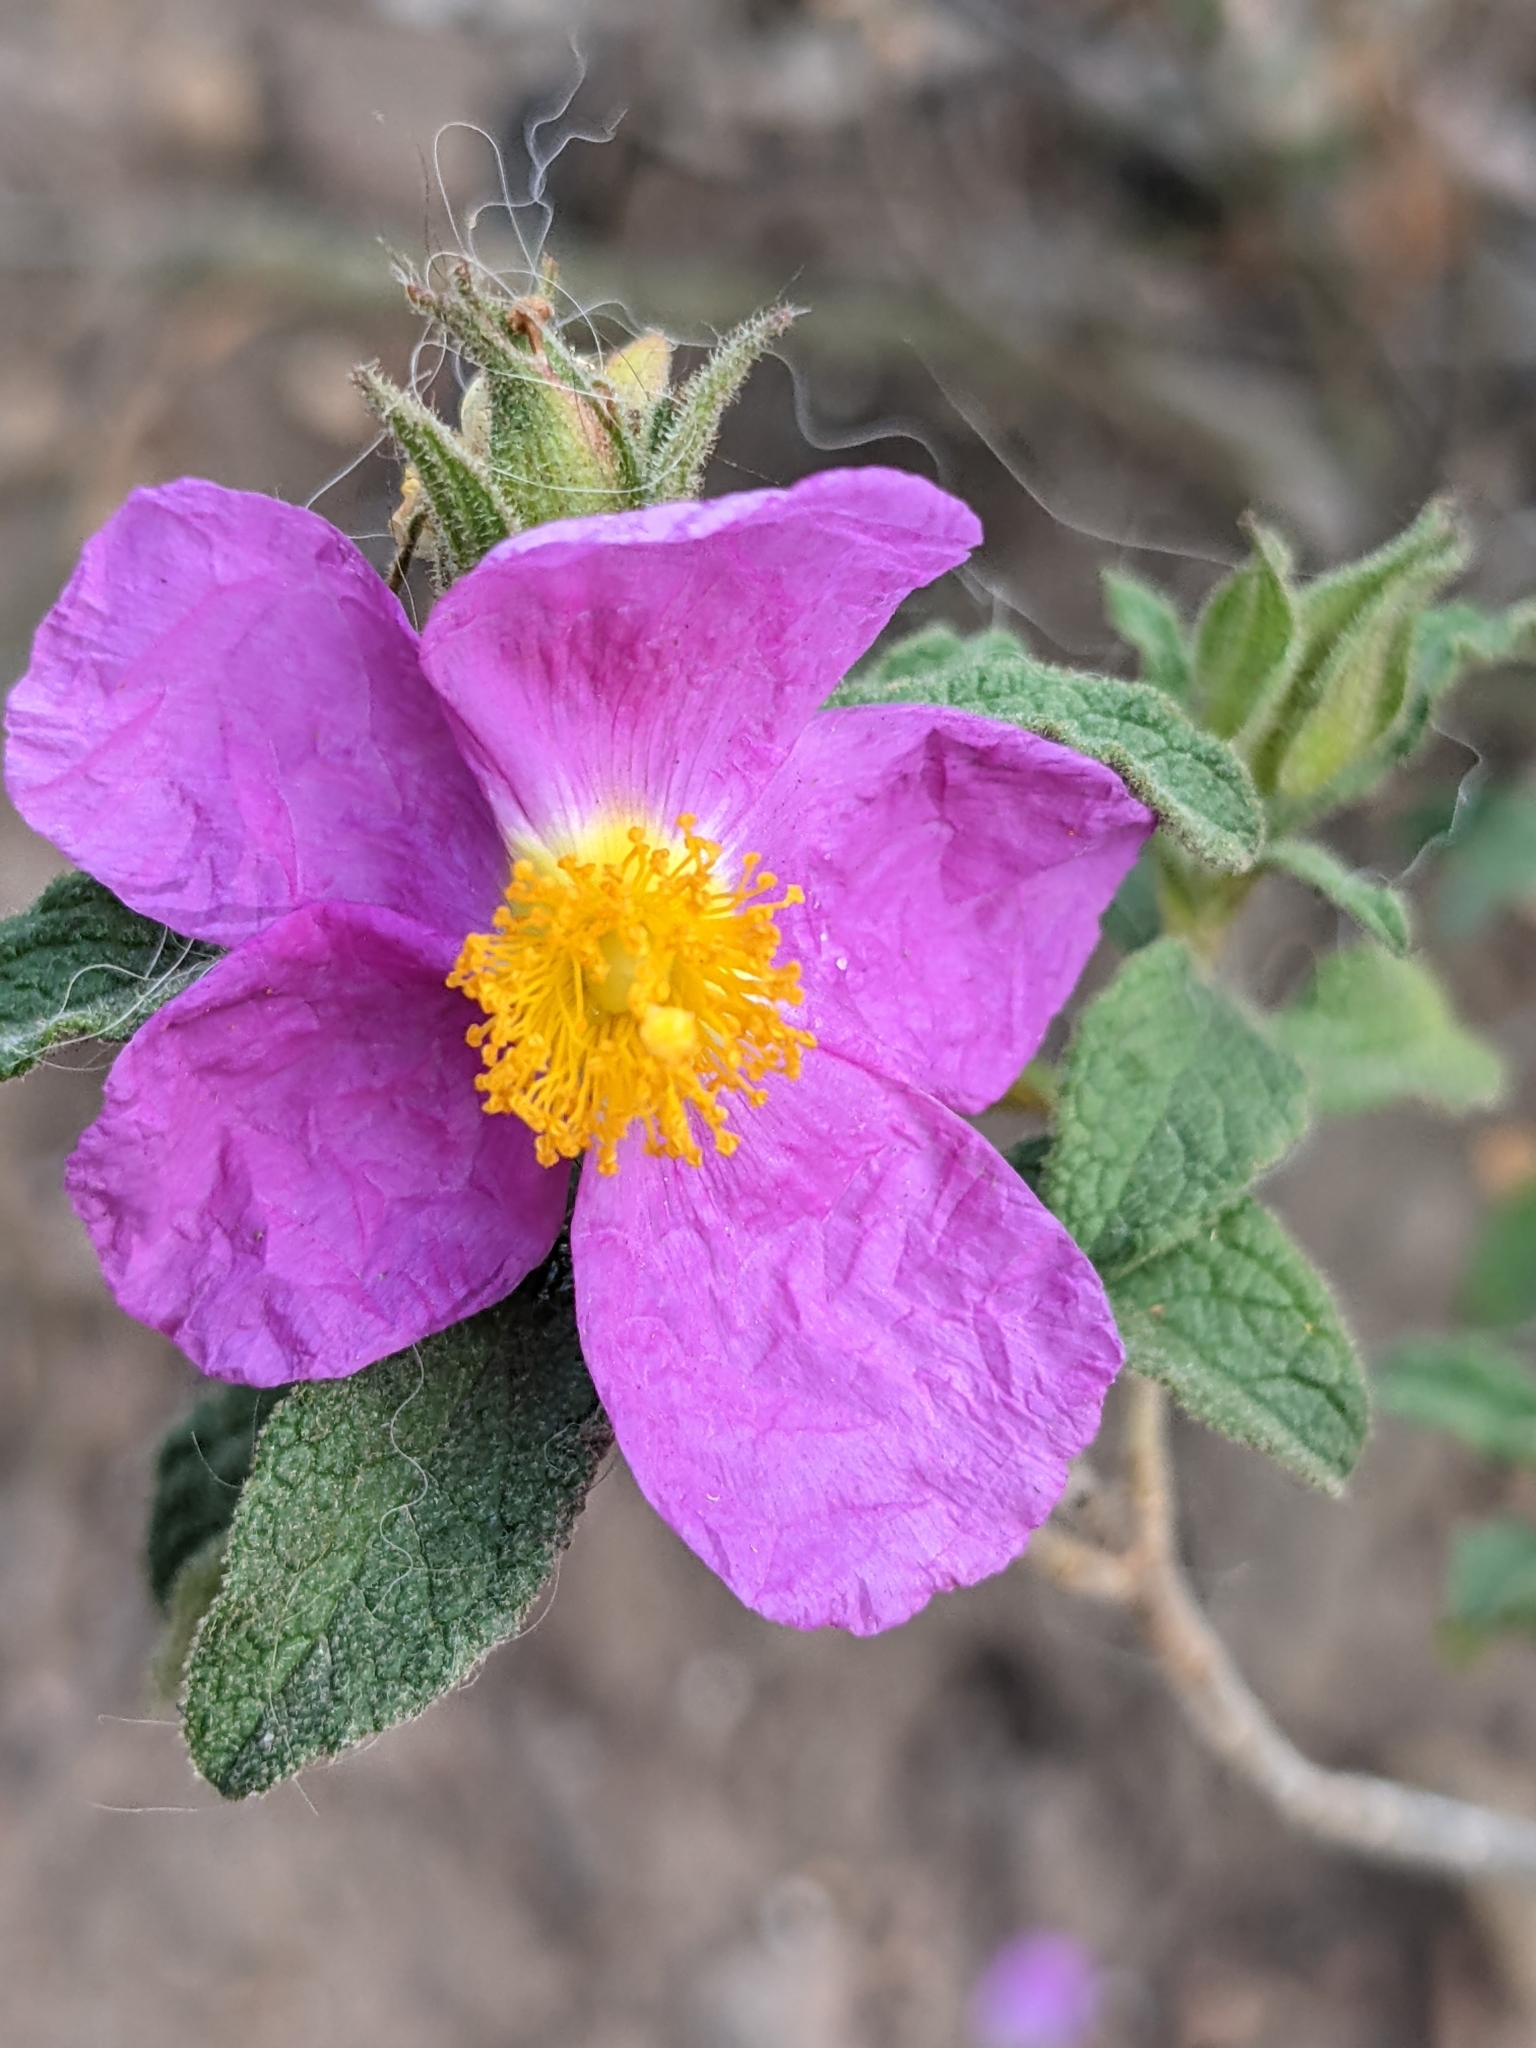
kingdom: Plantae
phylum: Tracheophyta
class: Magnoliopsida
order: Malvales
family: Cistaceae
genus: Cistus
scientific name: Cistus creticus
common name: Cretan rockrose
